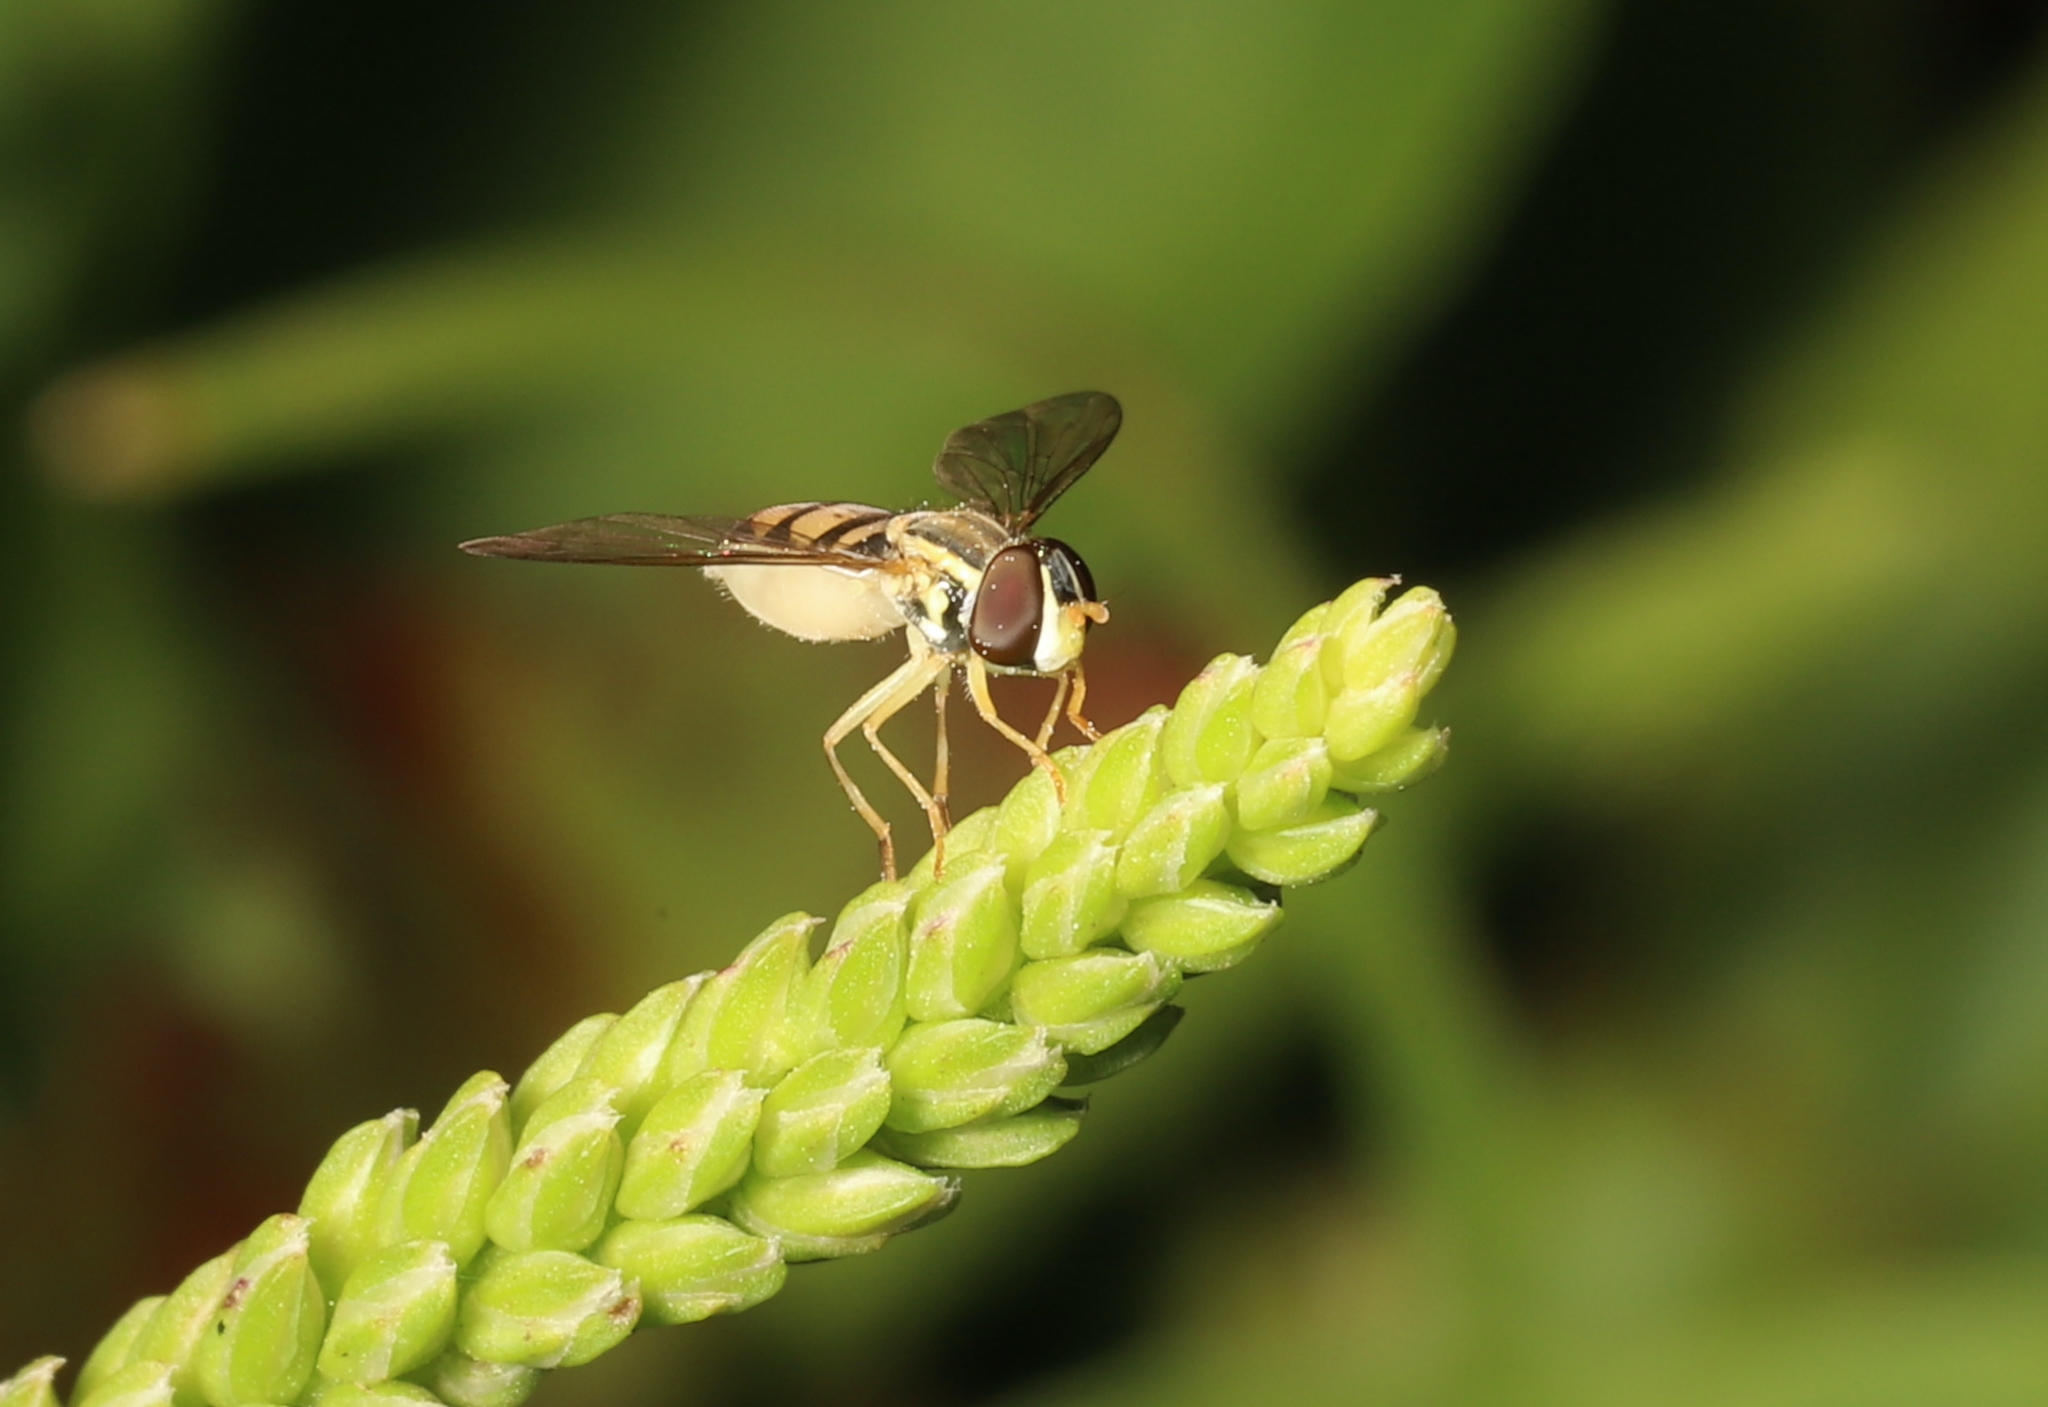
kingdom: Animalia
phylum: Arthropoda
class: Insecta
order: Diptera
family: Syrphidae
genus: Toxomerus
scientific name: Toxomerus marginatus
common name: Syrphid fly
